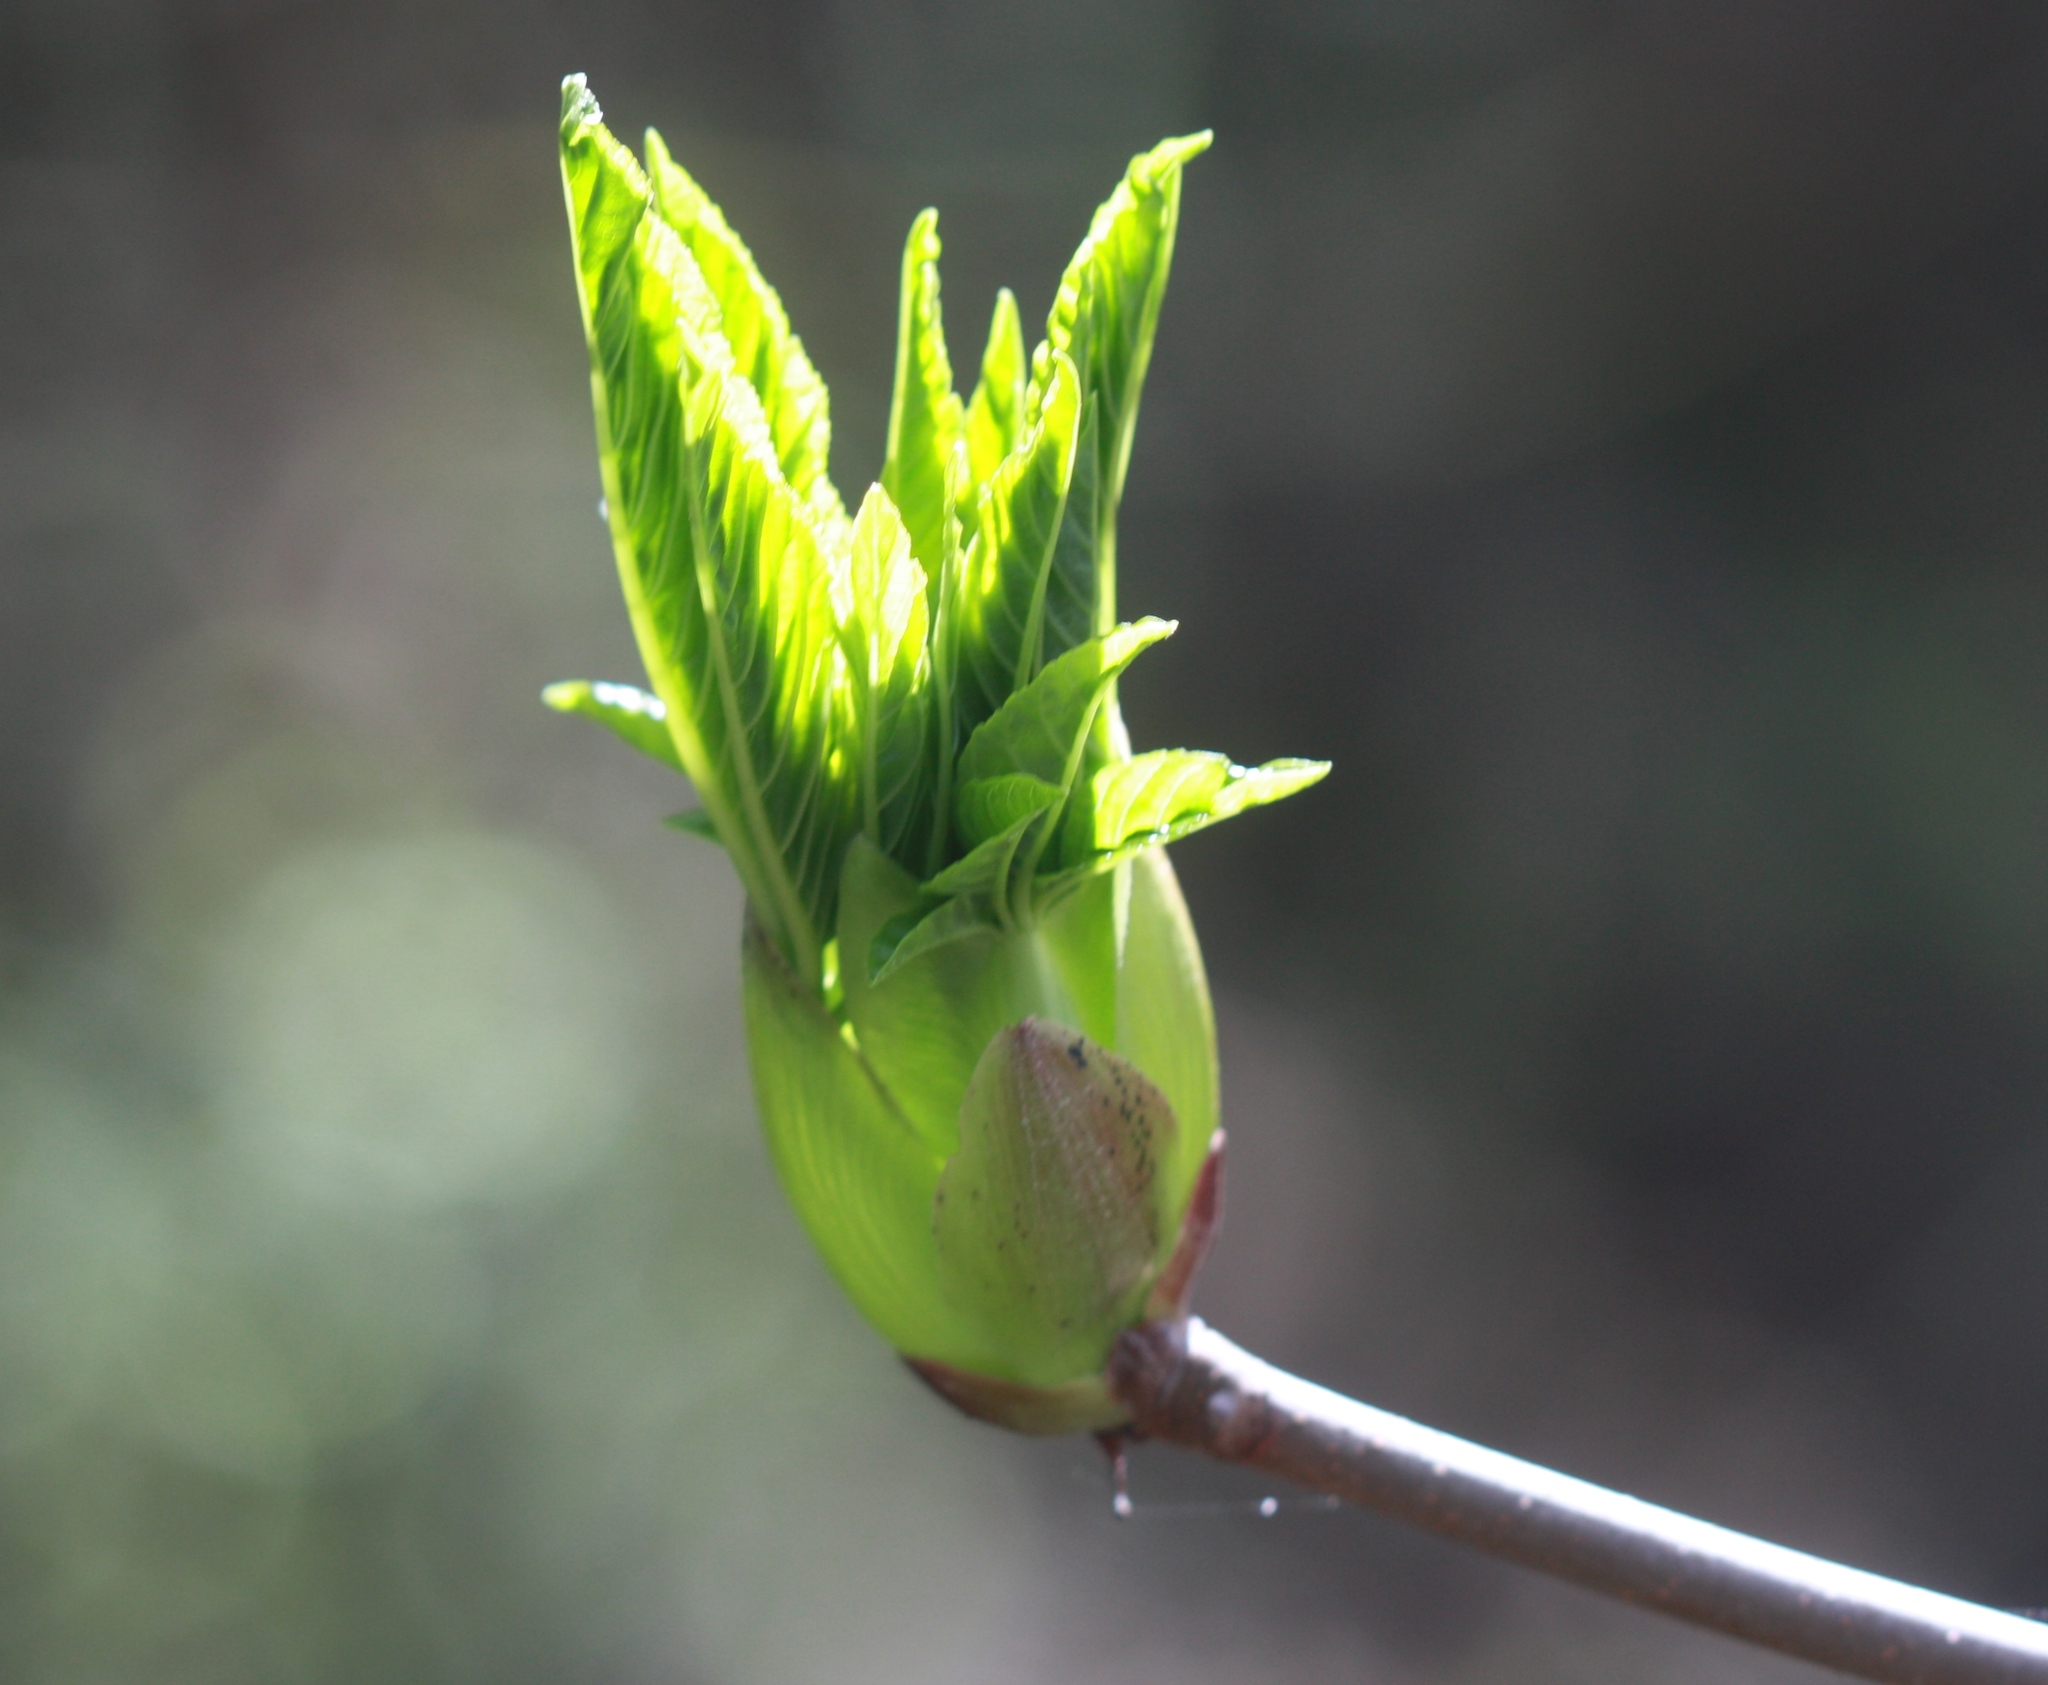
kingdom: Plantae
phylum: Tracheophyta
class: Magnoliopsida
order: Sapindales
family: Sapindaceae
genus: Aesculus
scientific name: Aesculus californica
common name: California buckeye
